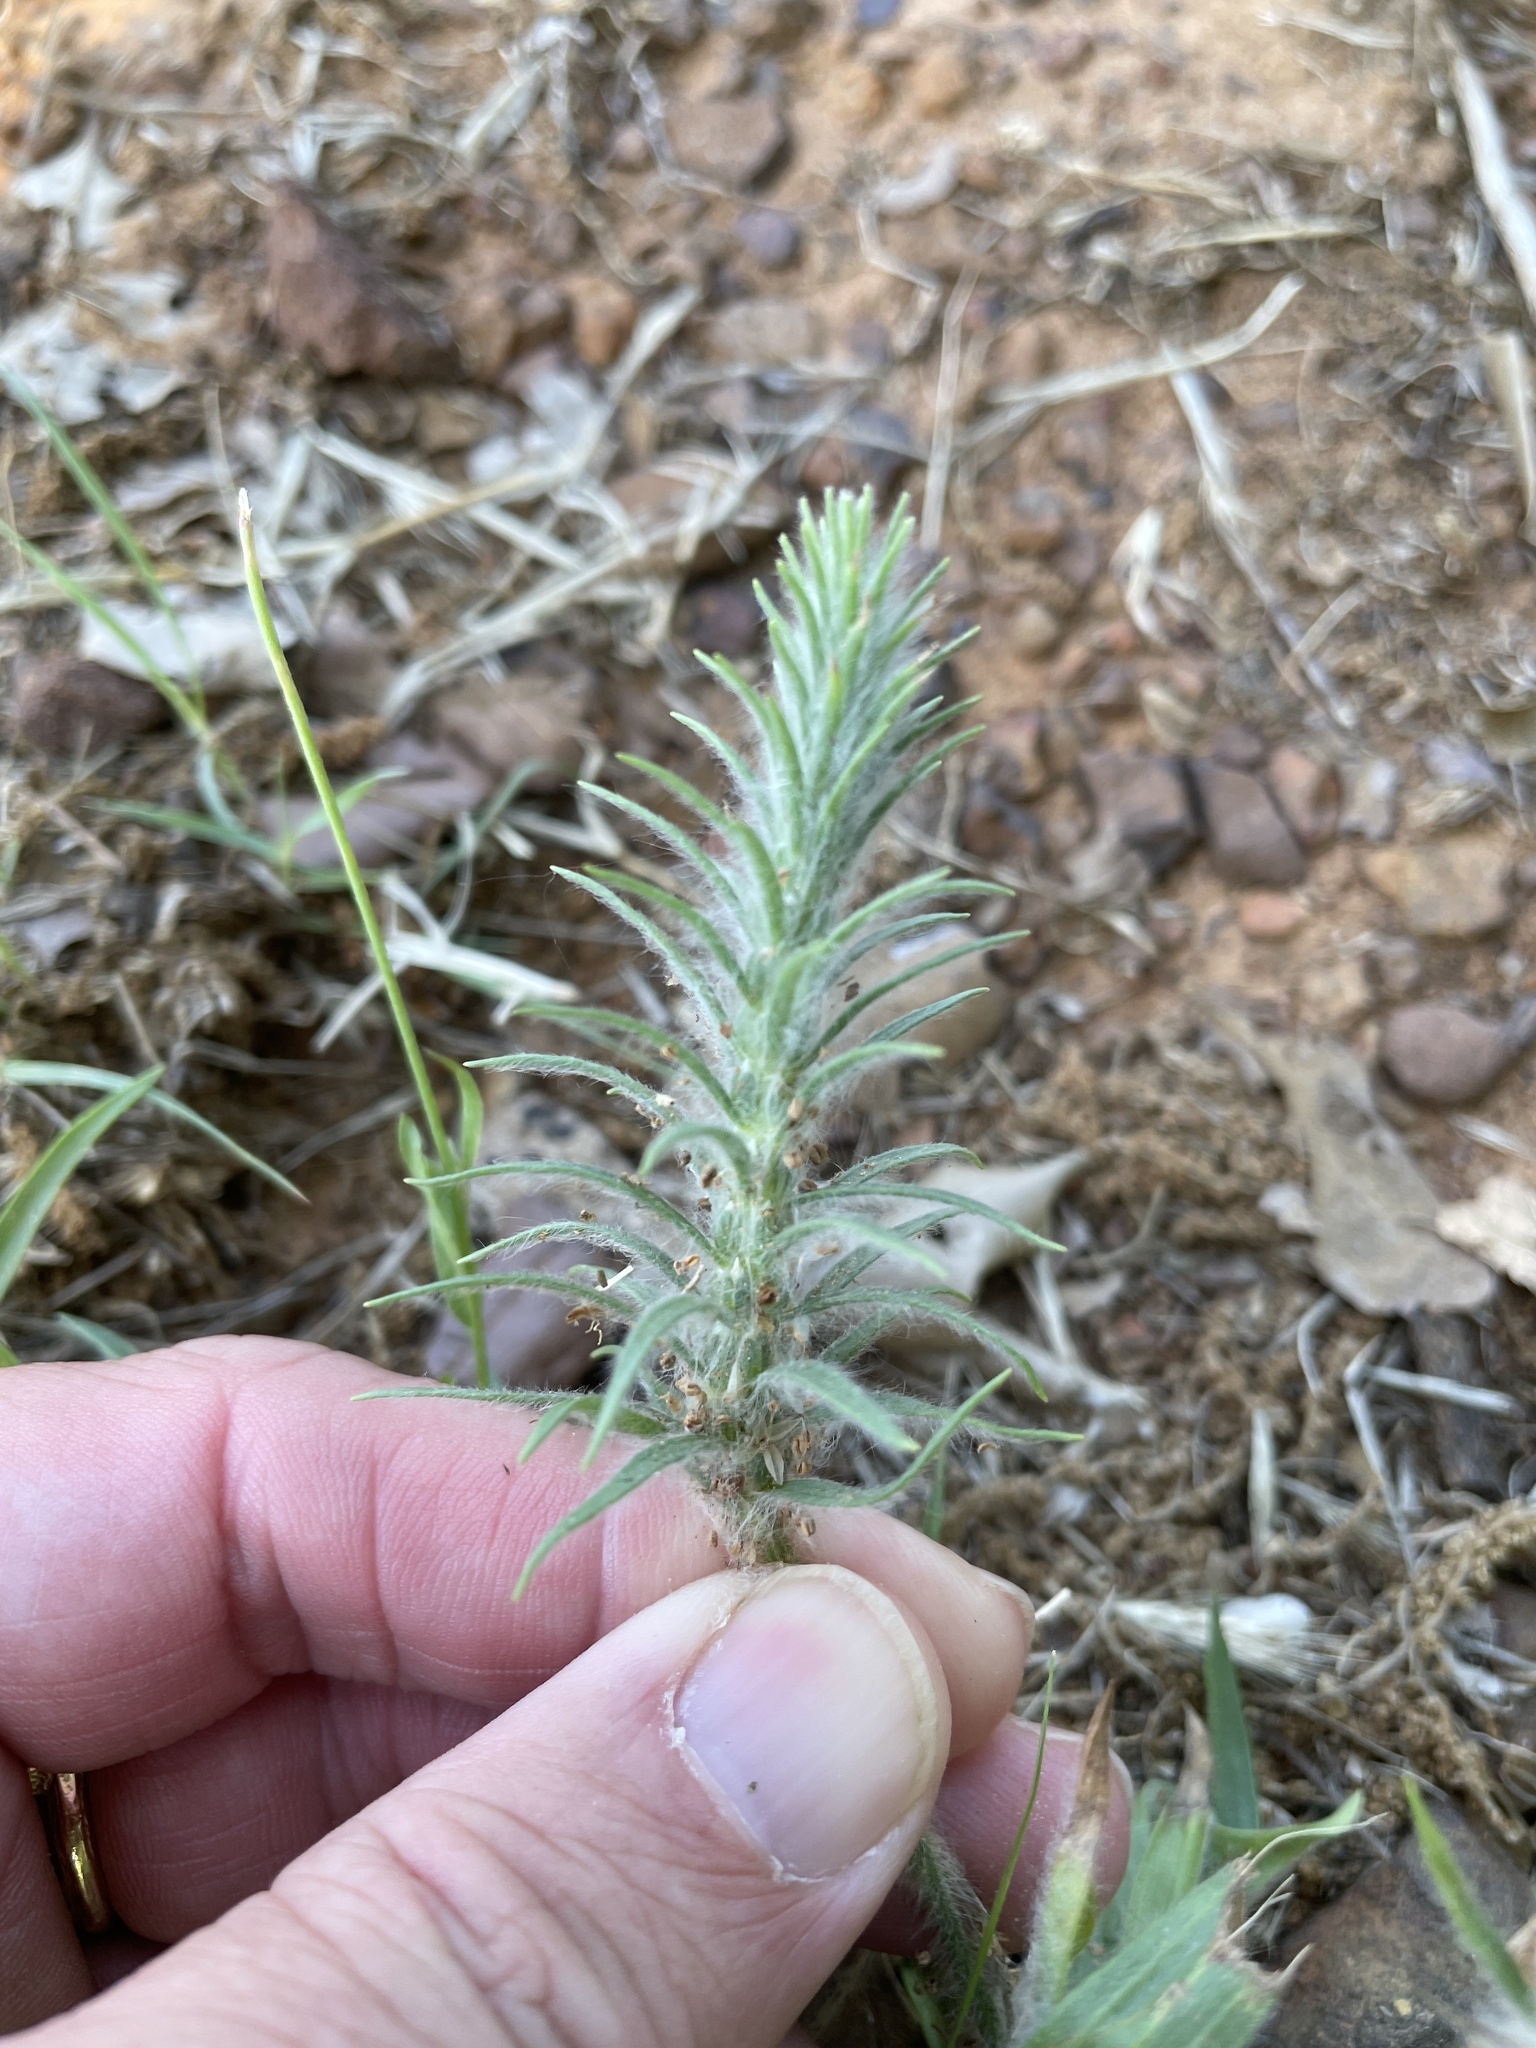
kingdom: Plantae
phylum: Tracheophyta
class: Magnoliopsida
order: Lamiales
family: Plantaginaceae
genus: Plantago
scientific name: Plantago aristata
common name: Bracted plantain
